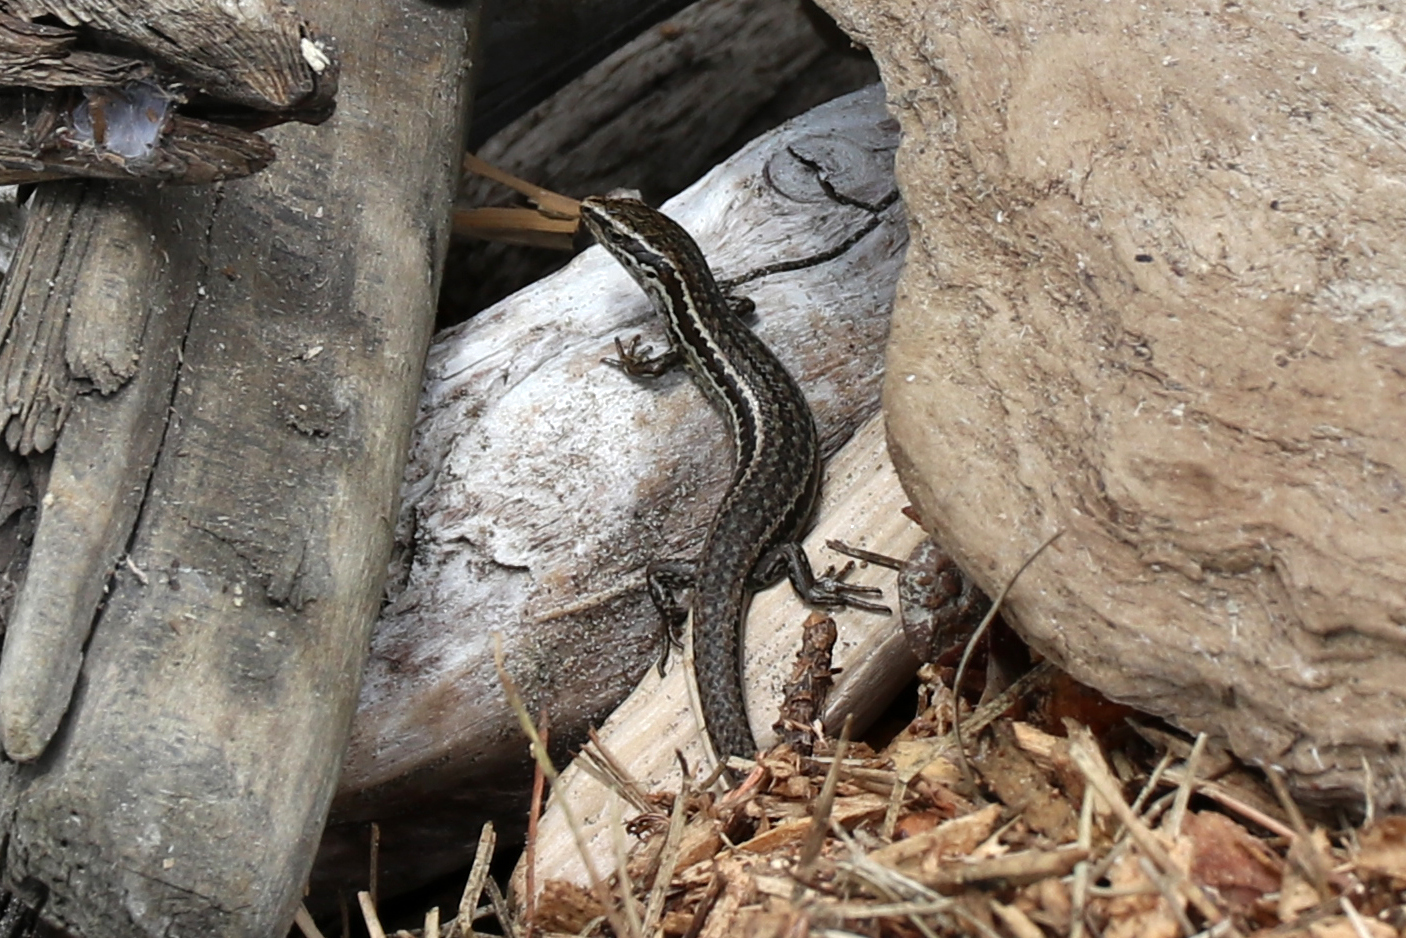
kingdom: Animalia
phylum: Chordata
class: Squamata
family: Scincidae
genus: Oligosoma
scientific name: Oligosoma polychroma
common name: Common new zealand skink
